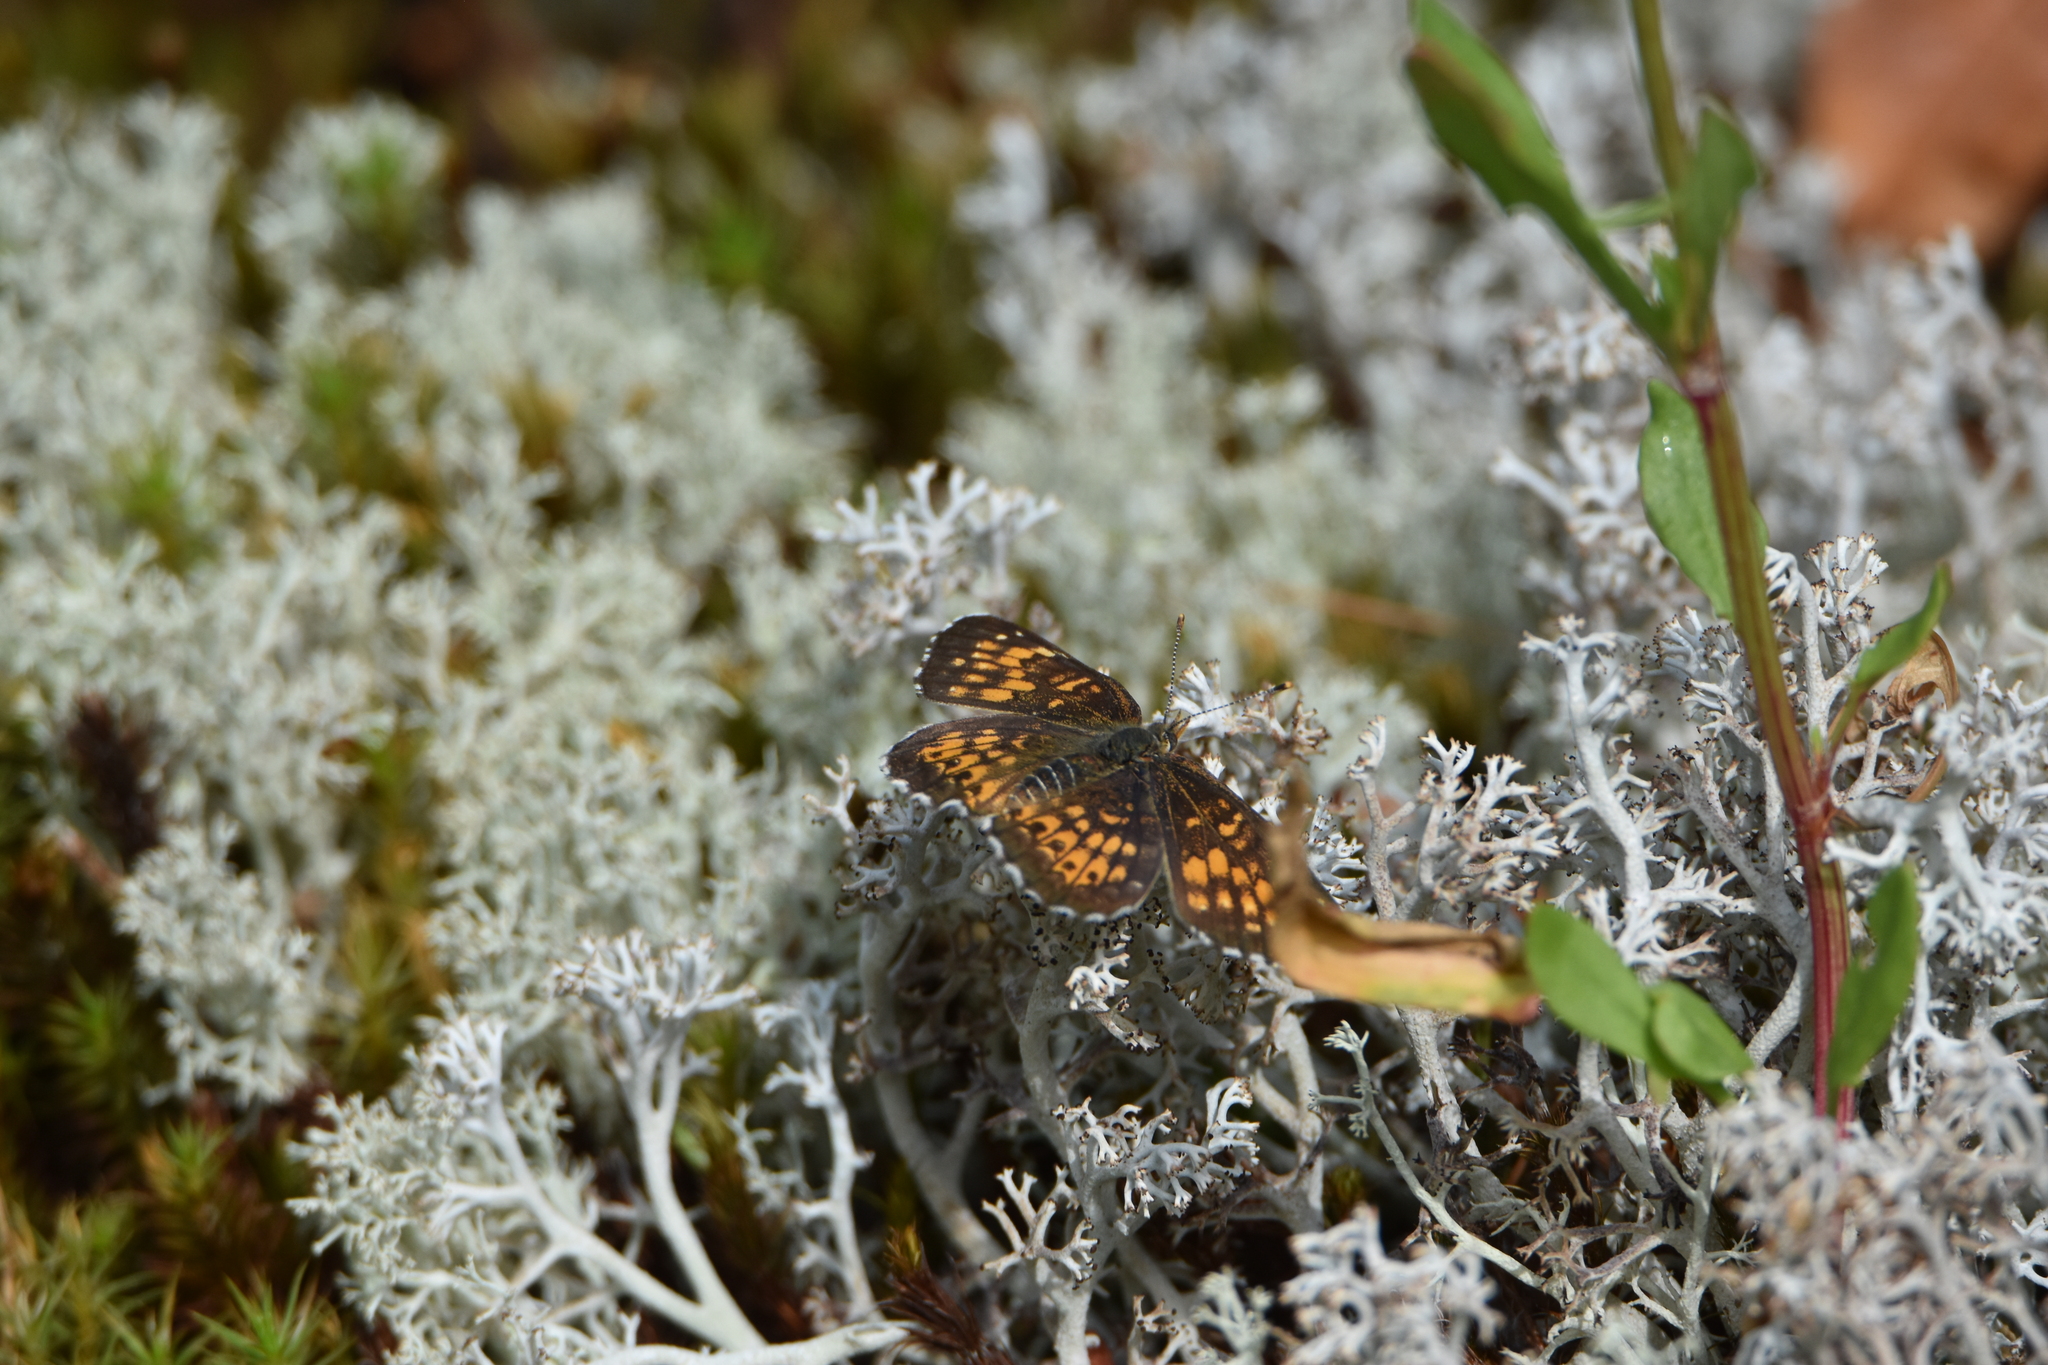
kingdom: Animalia
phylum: Arthropoda
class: Insecta
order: Lepidoptera
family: Nymphalidae
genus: Chlosyne
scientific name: Chlosyne harrisii
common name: Harris's checkerspot
